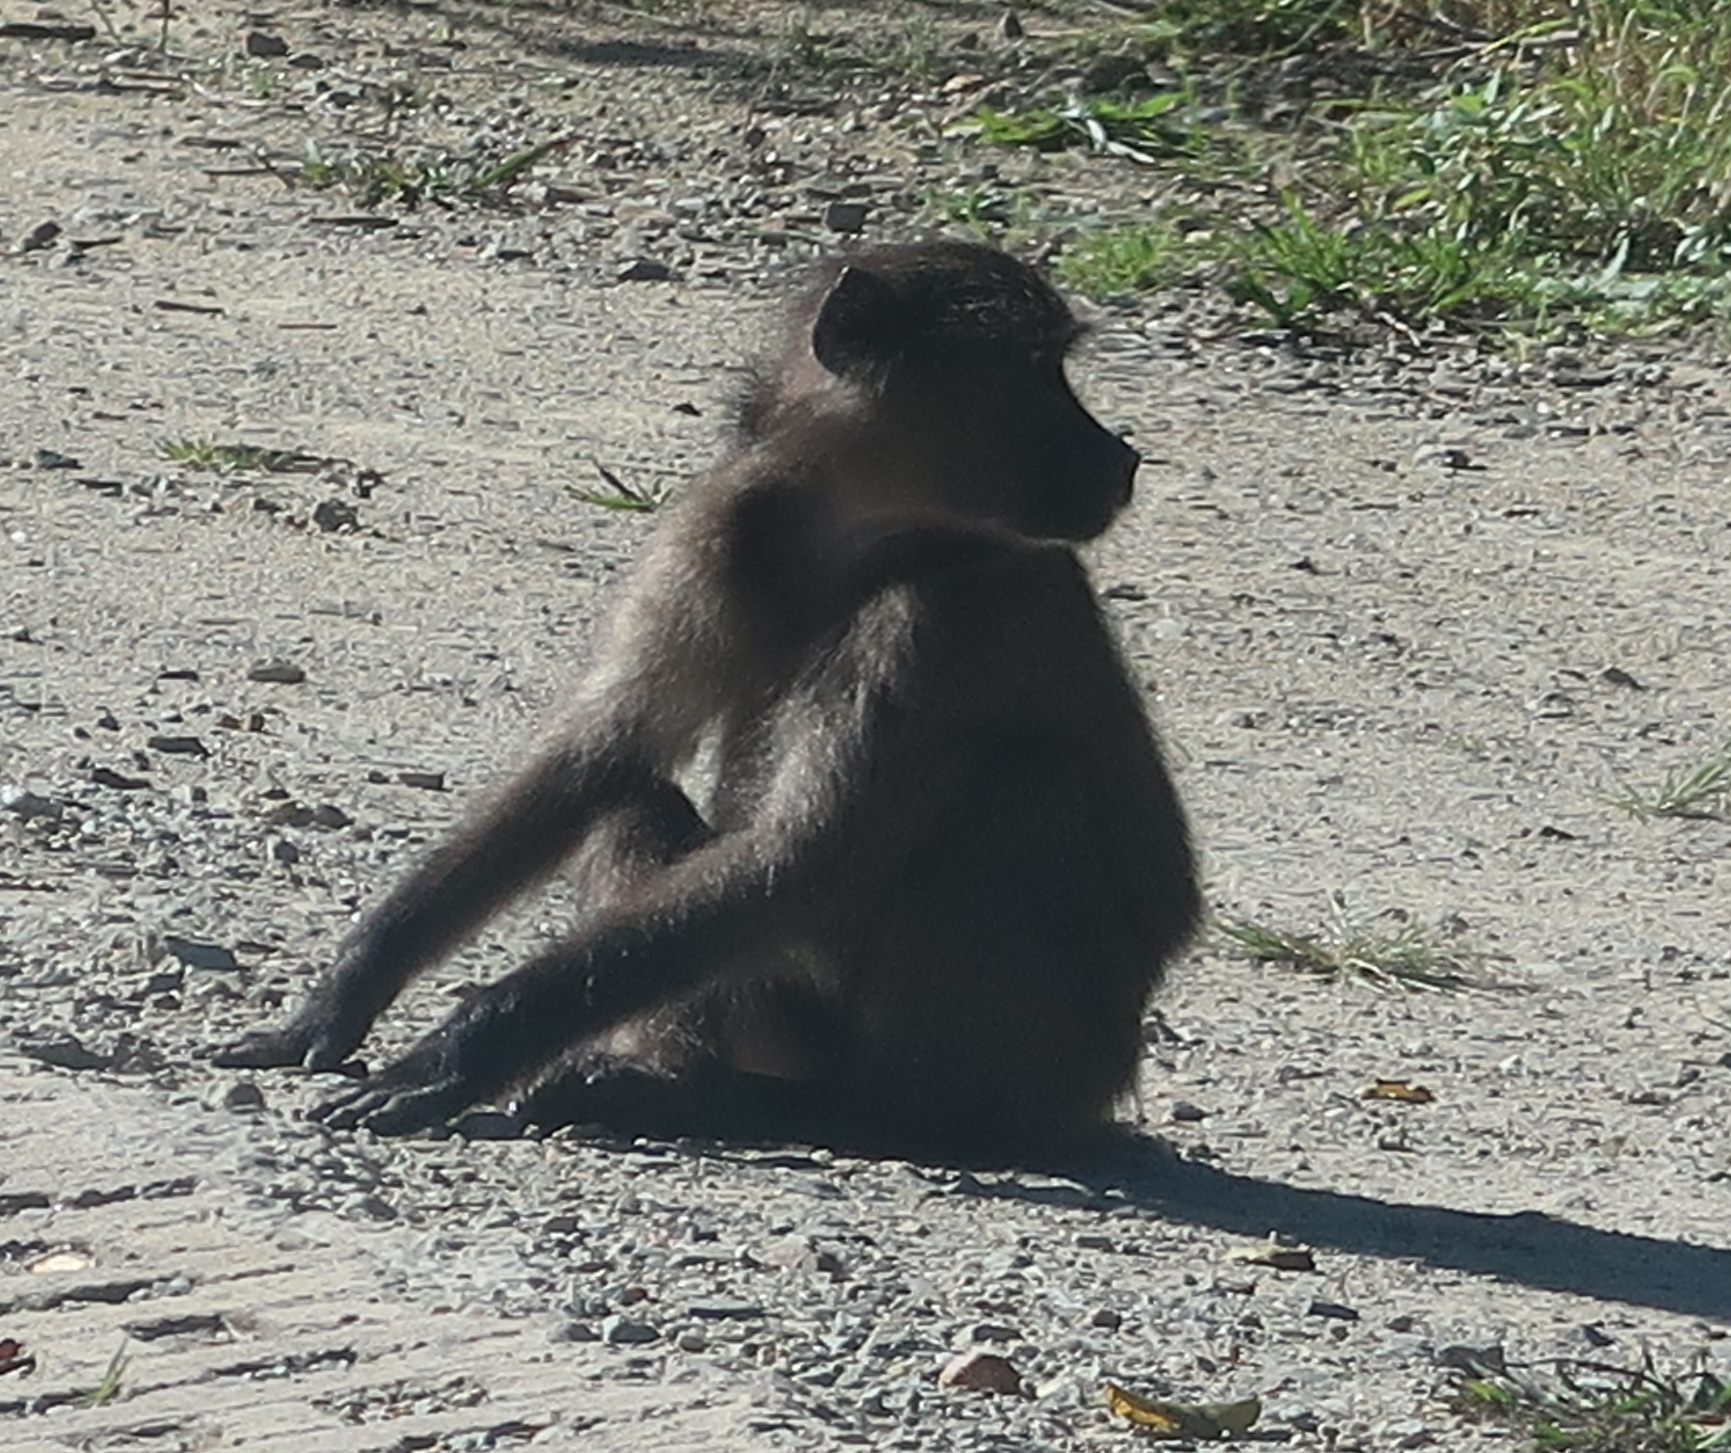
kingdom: Animalia
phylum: Chordata
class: Mammalia
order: Primates
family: Cercopithecidae
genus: Papio
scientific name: Papio ursinus
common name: Chacma baboon
